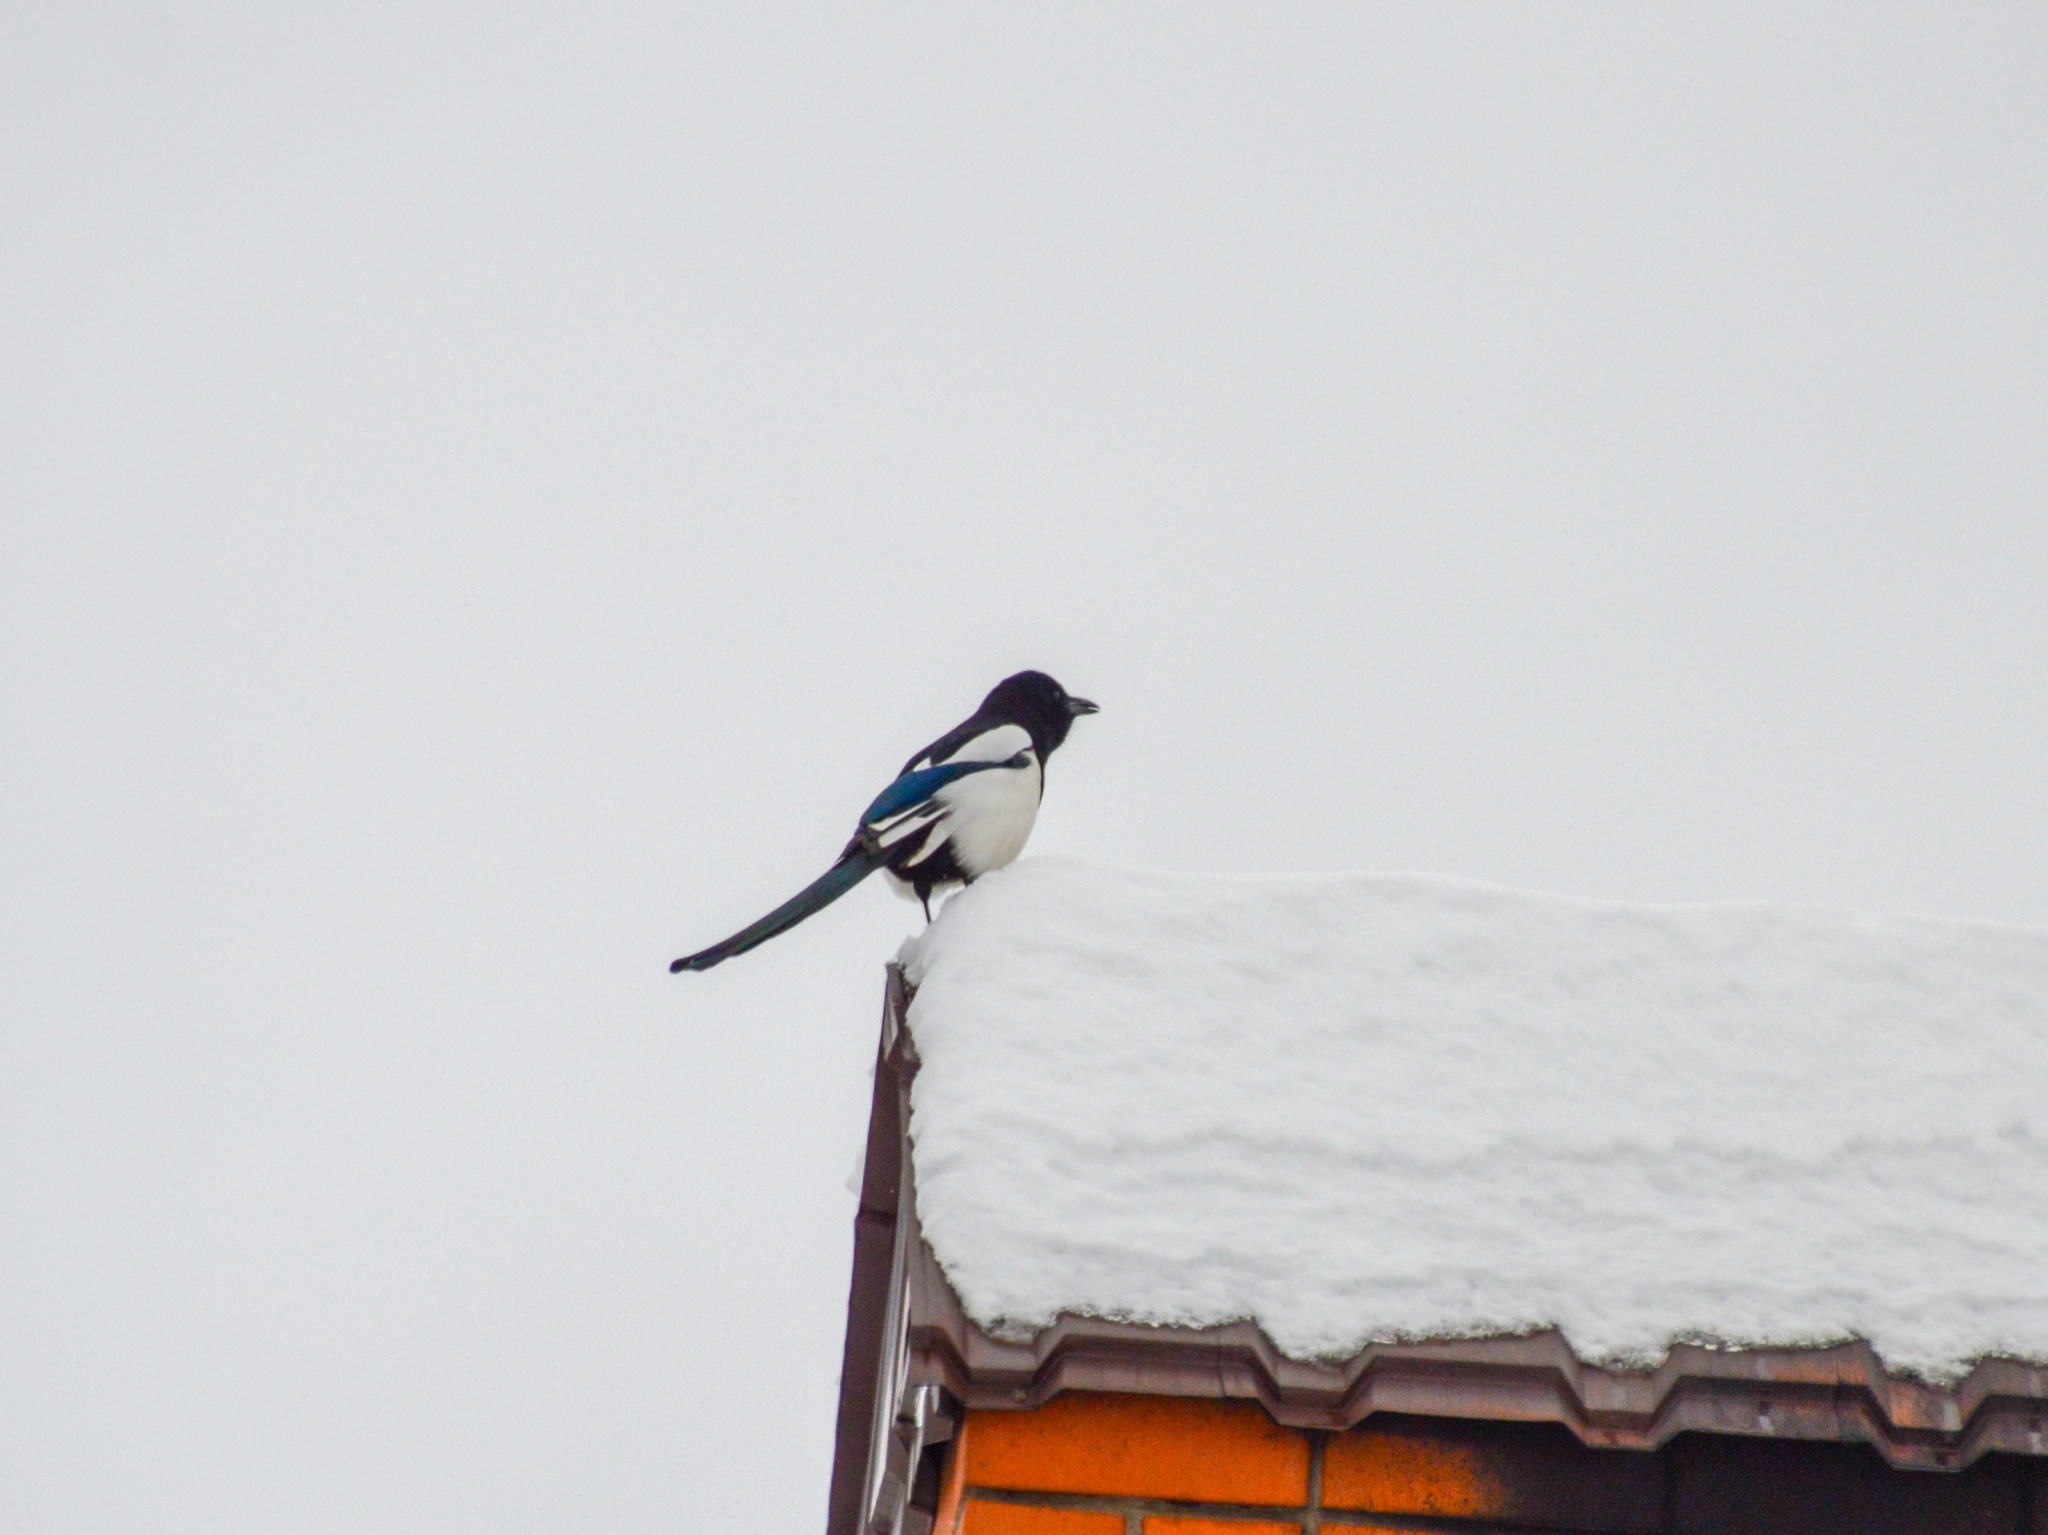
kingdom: Animalia
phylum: Chordata
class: Aves
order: Passeriformes
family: Corvidae
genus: Pica
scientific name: Pica pica
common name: Eurasian magpie
